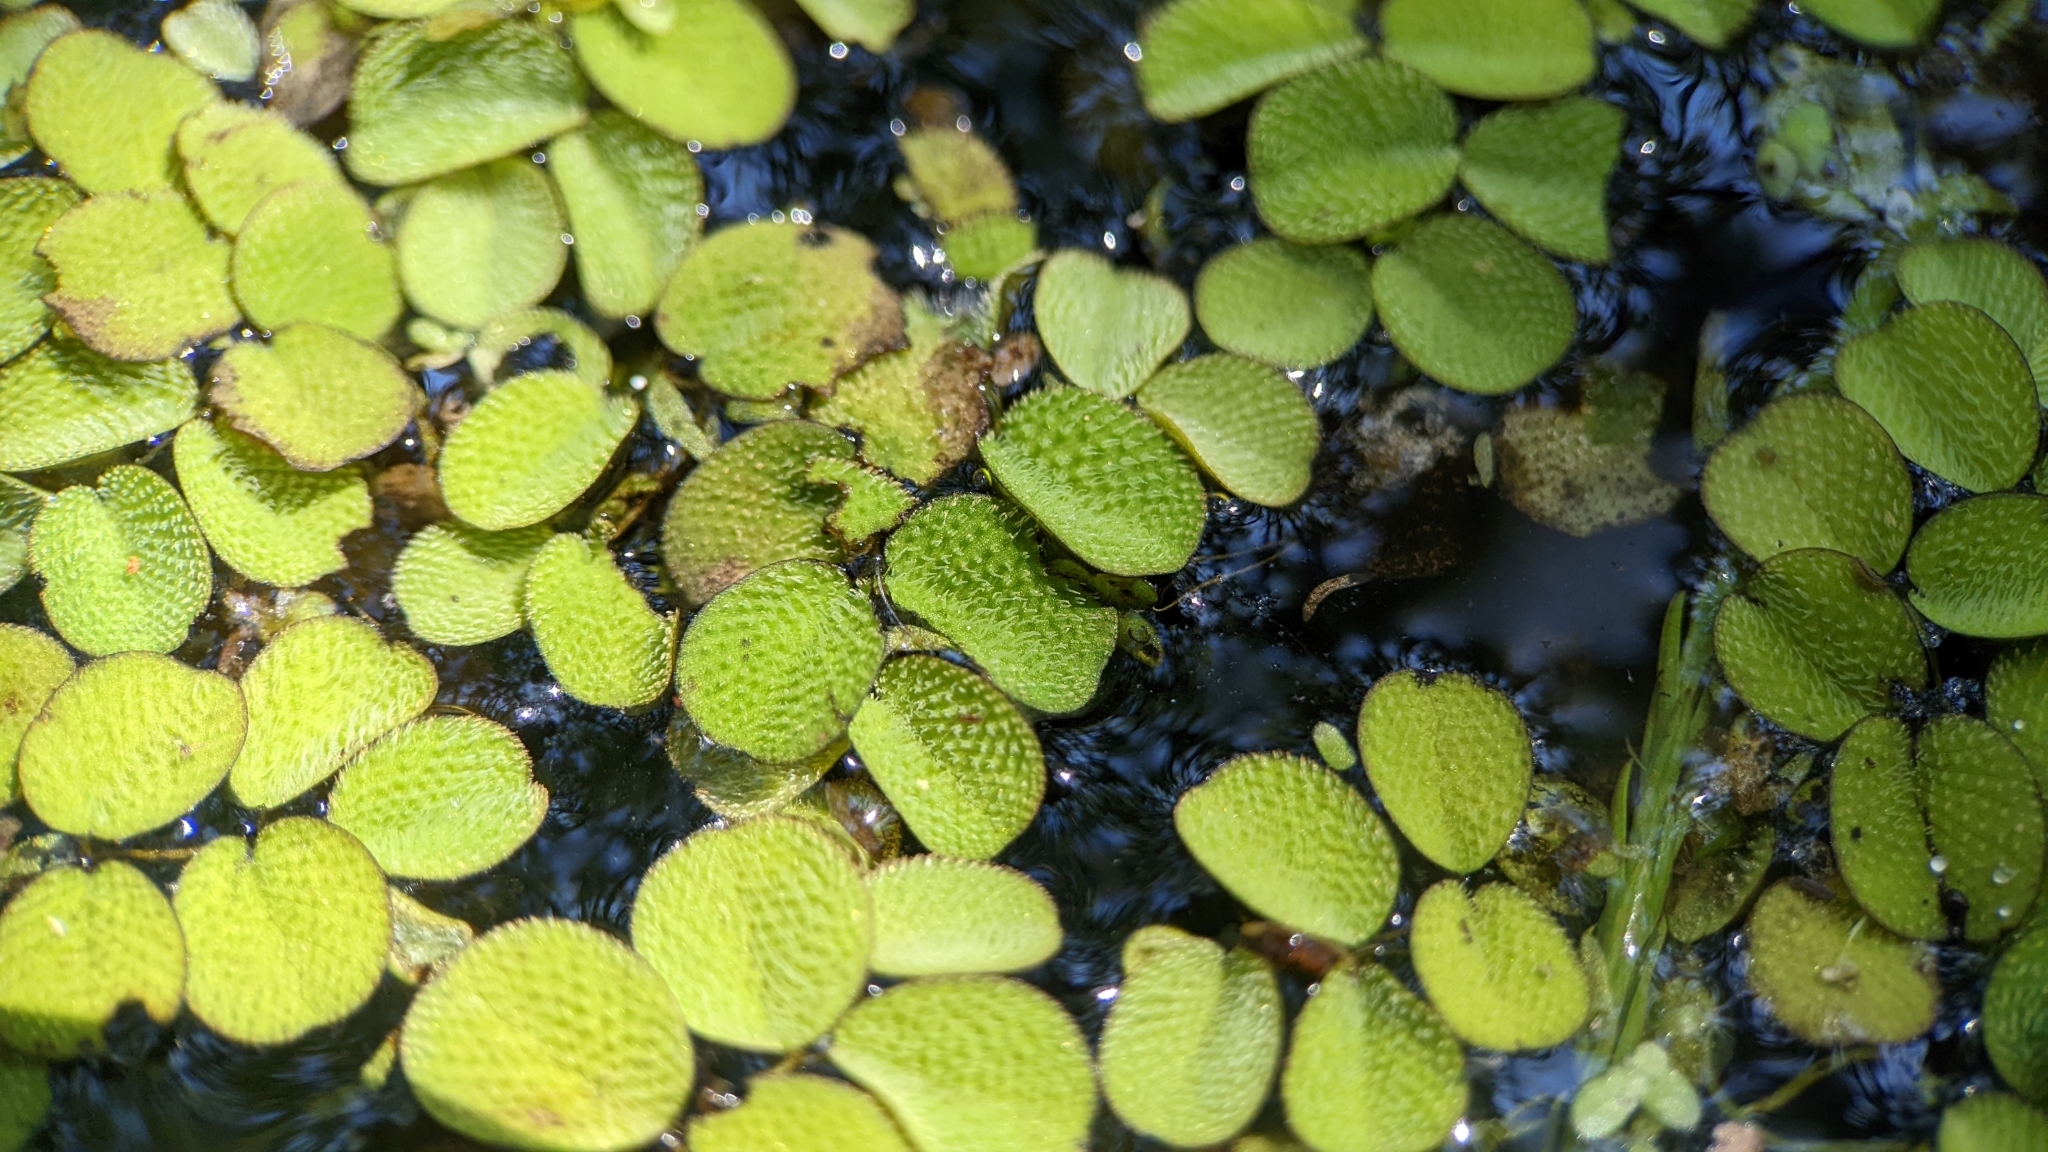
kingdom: Plantae
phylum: Tracheophyta
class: Polypodiopsida
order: Salviniales
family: Salviniaceae
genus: Salvinia
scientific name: Salvinia minima
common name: Water spangles
